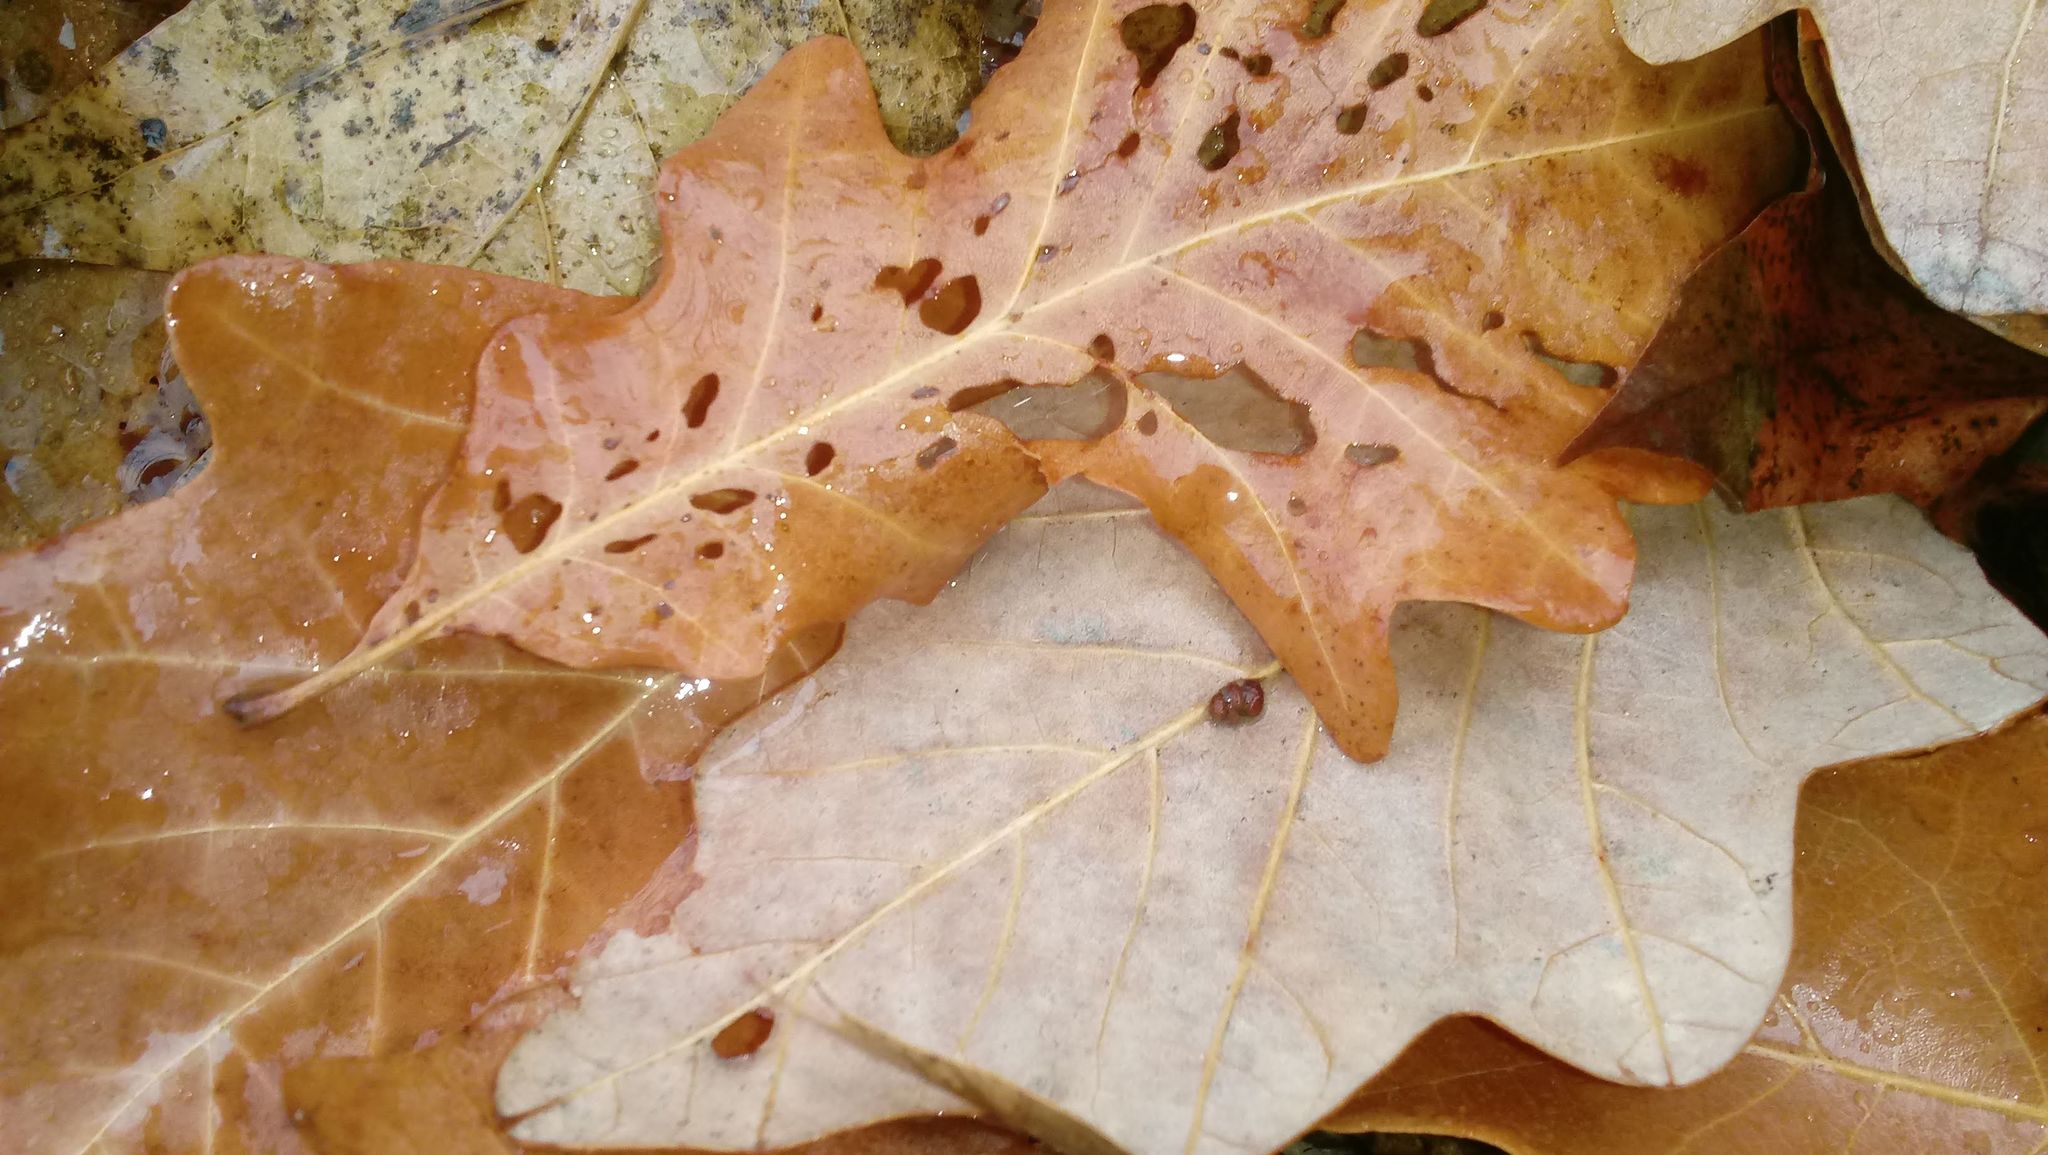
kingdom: Animalia
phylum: Arthropoda
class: Insecta
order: Hymenoptera
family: Cynipidae
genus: Andricus
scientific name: Andricus Druon ignotum
